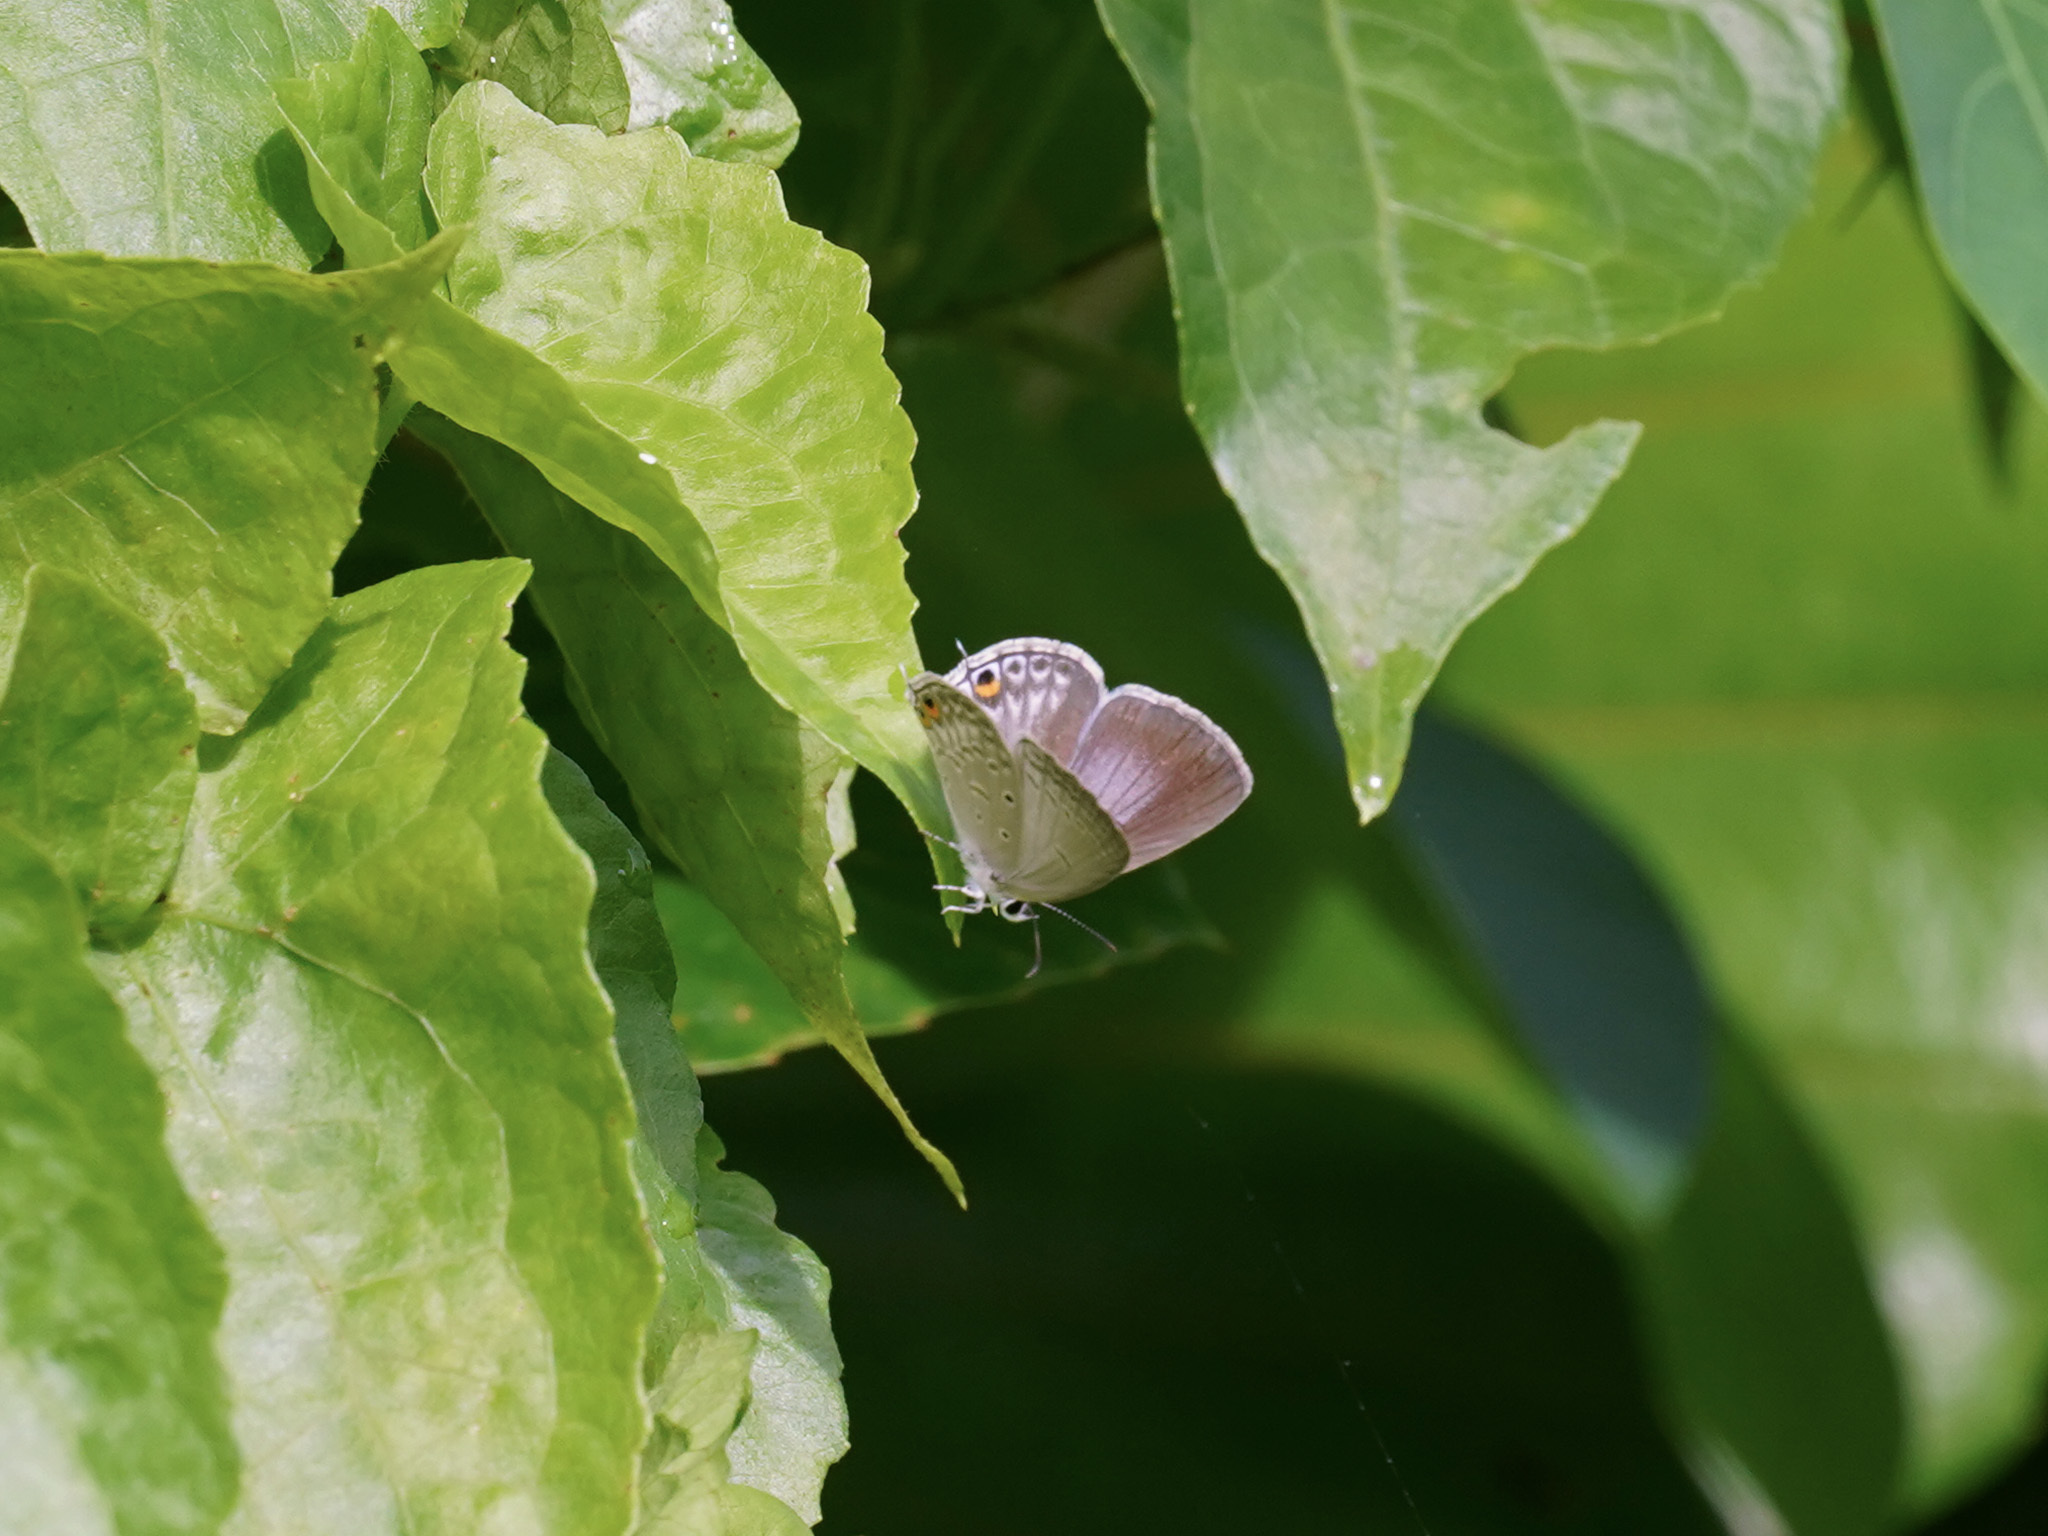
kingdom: Animalia
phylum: Arthropoda
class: Insecta
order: Lepidoptera
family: Lycaenidae
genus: Euchrysops
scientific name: Euchrysops cnejus
